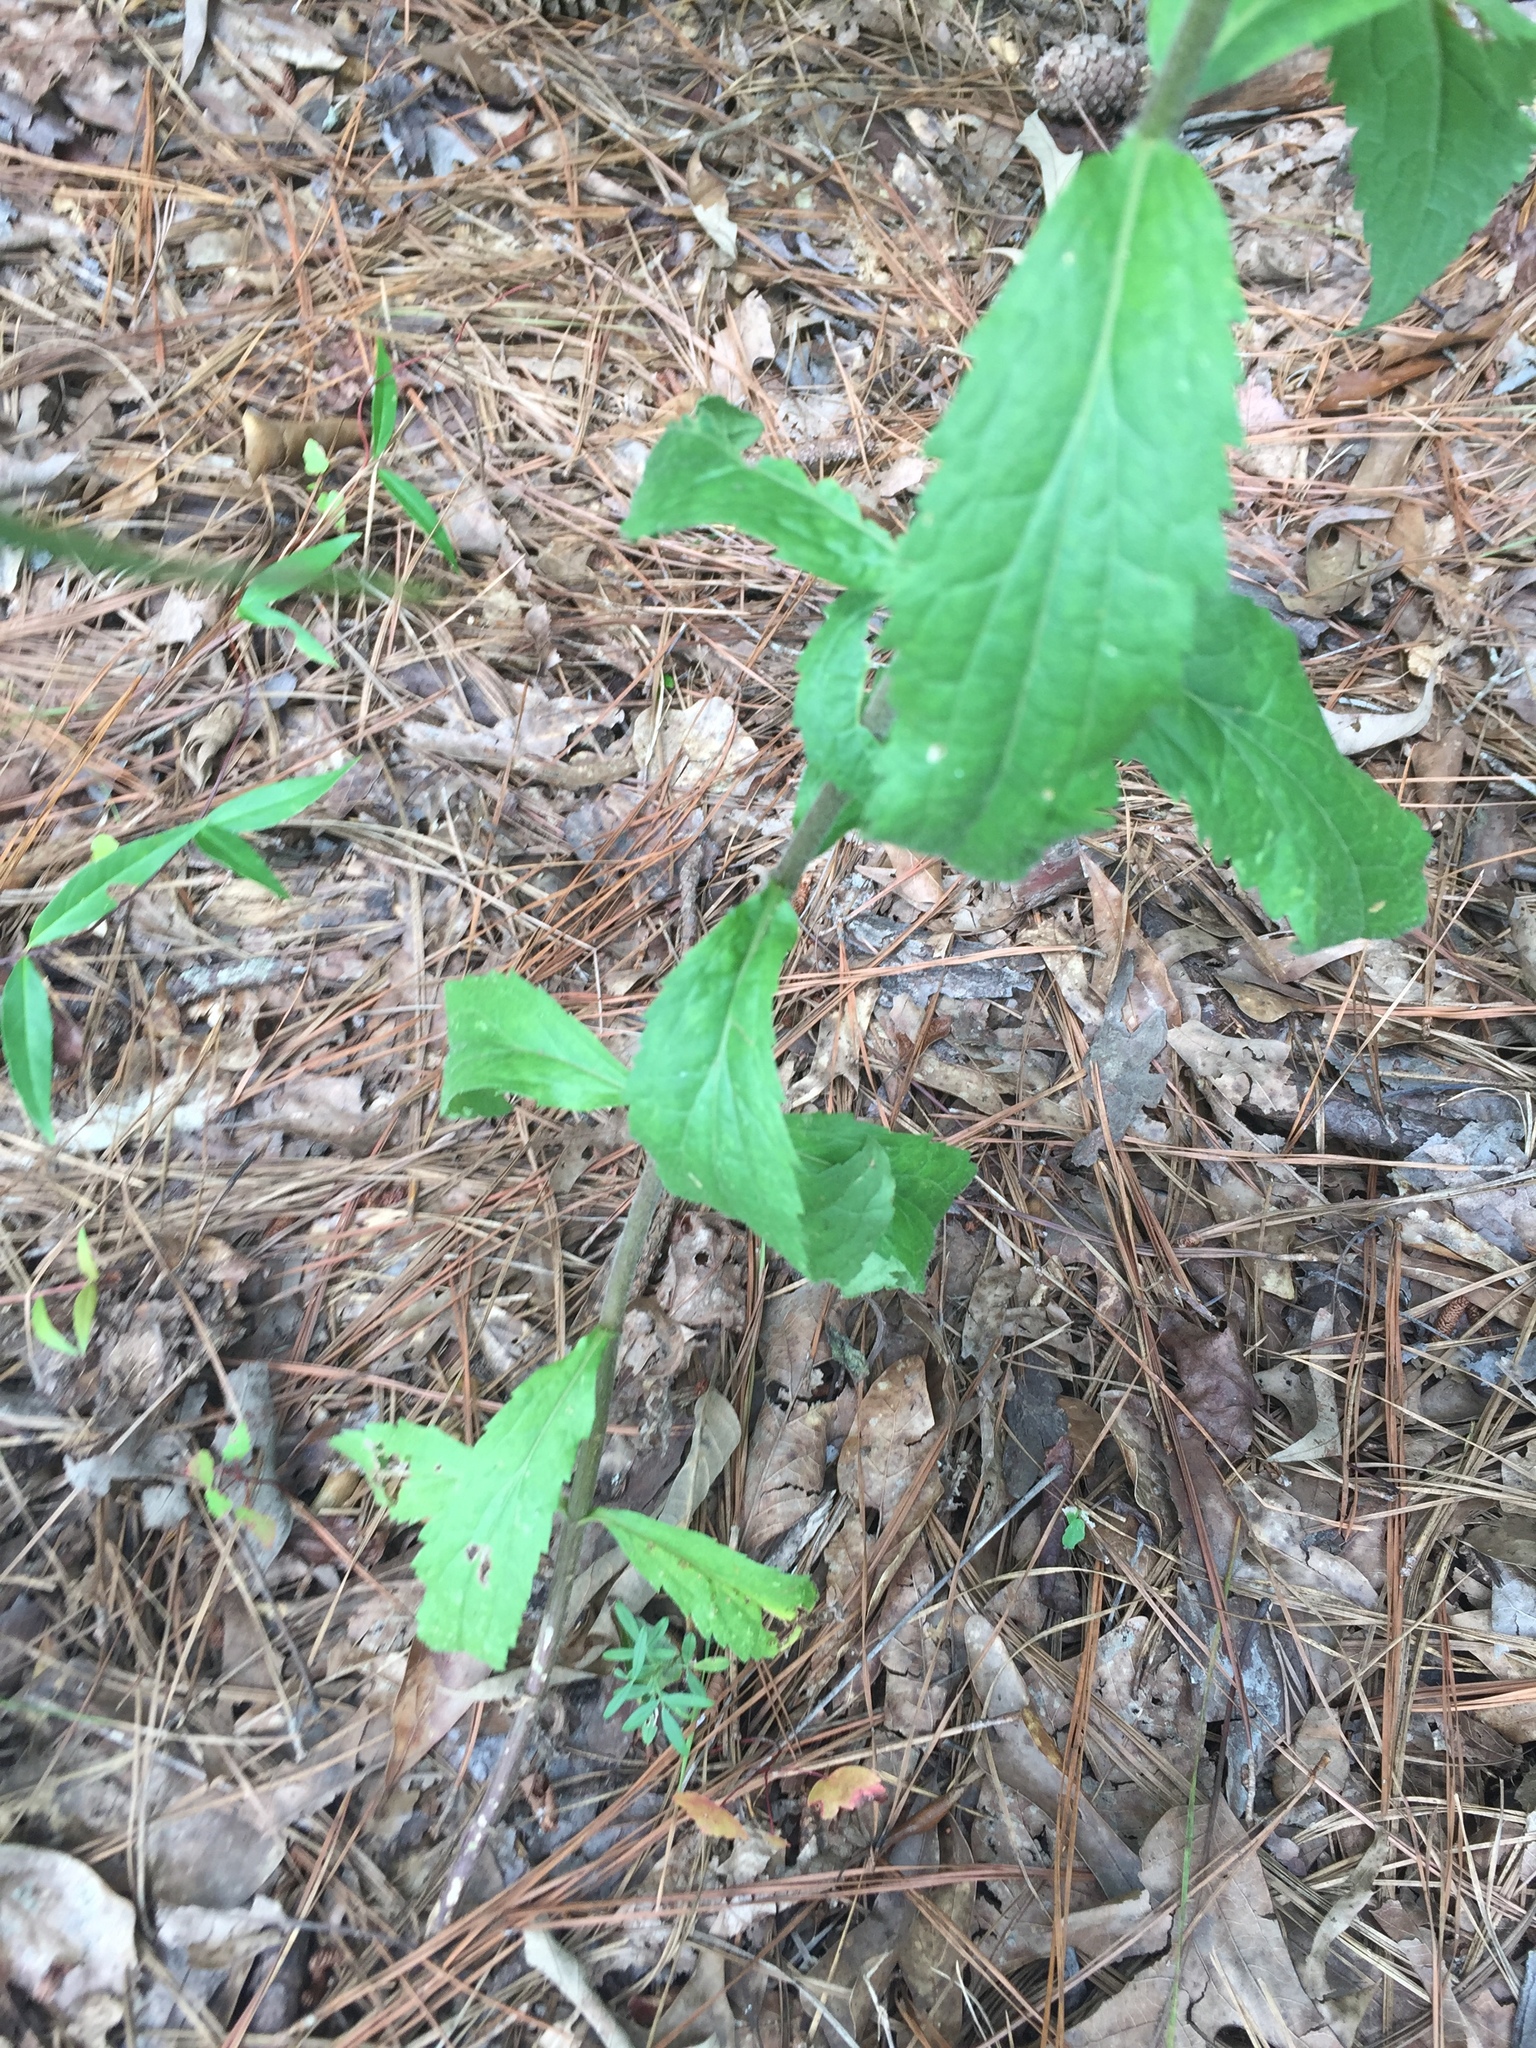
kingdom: Plantae
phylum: Tracheophyta
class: Magnoliopsida
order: Asterales
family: Asteraceae
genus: Eupatorium
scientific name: Eupatorium album
